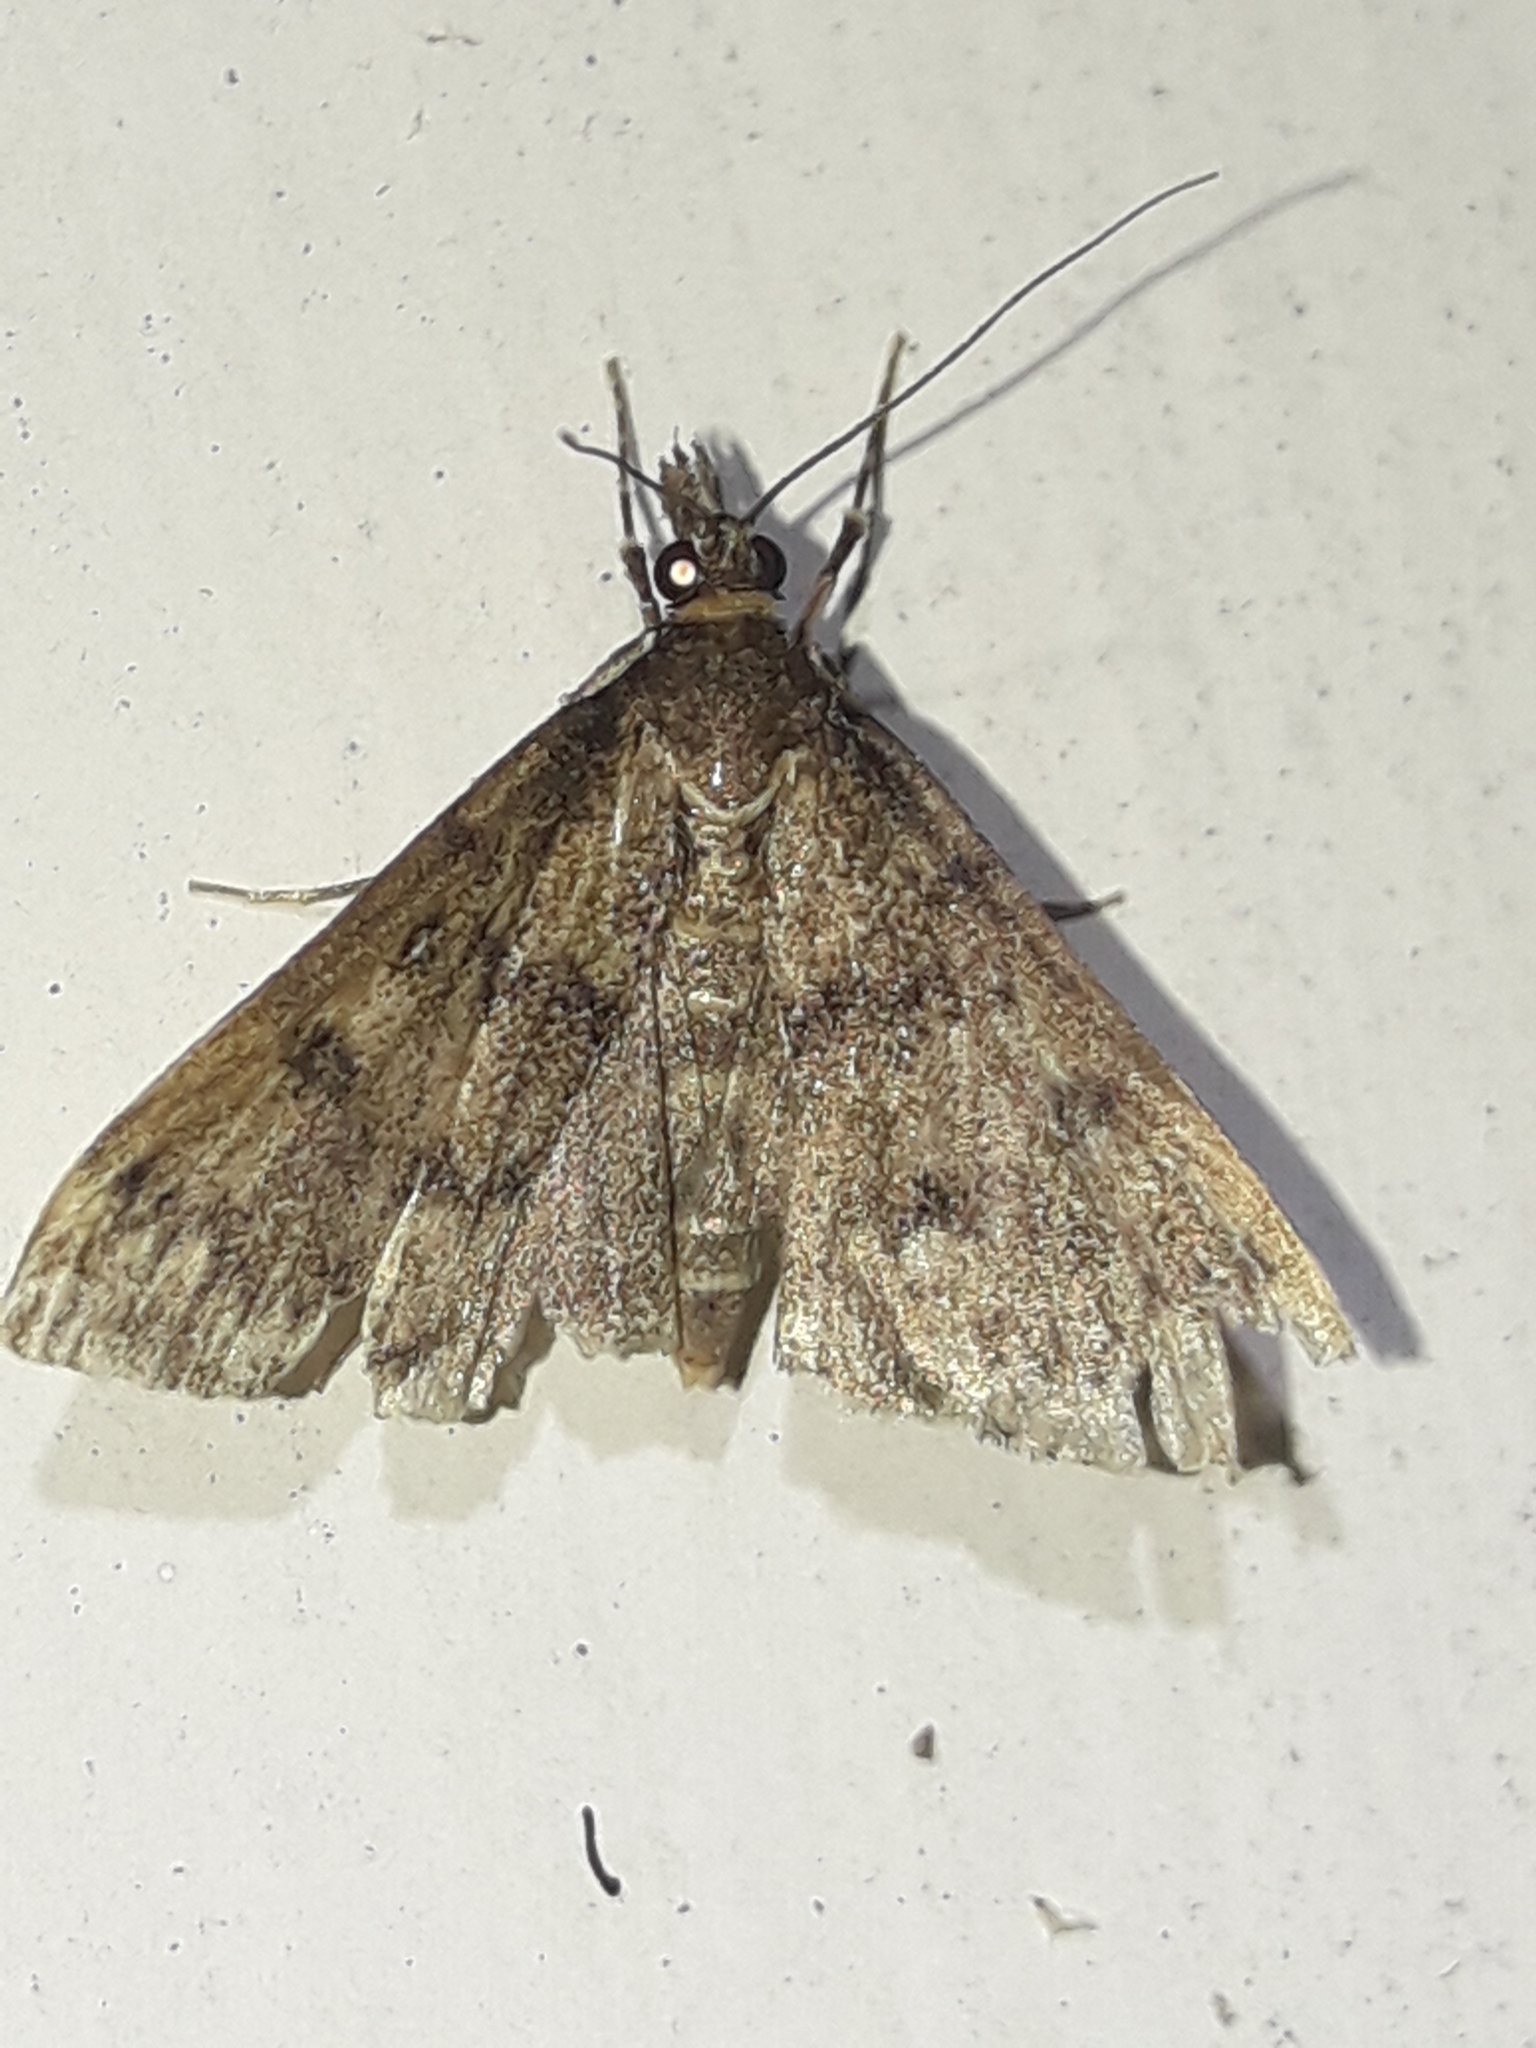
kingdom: Animalia
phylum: Arthropoda
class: Insecta
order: Lepidoptera
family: Crambidae
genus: Loxostege
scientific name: Loxostege Proternia philocapna
